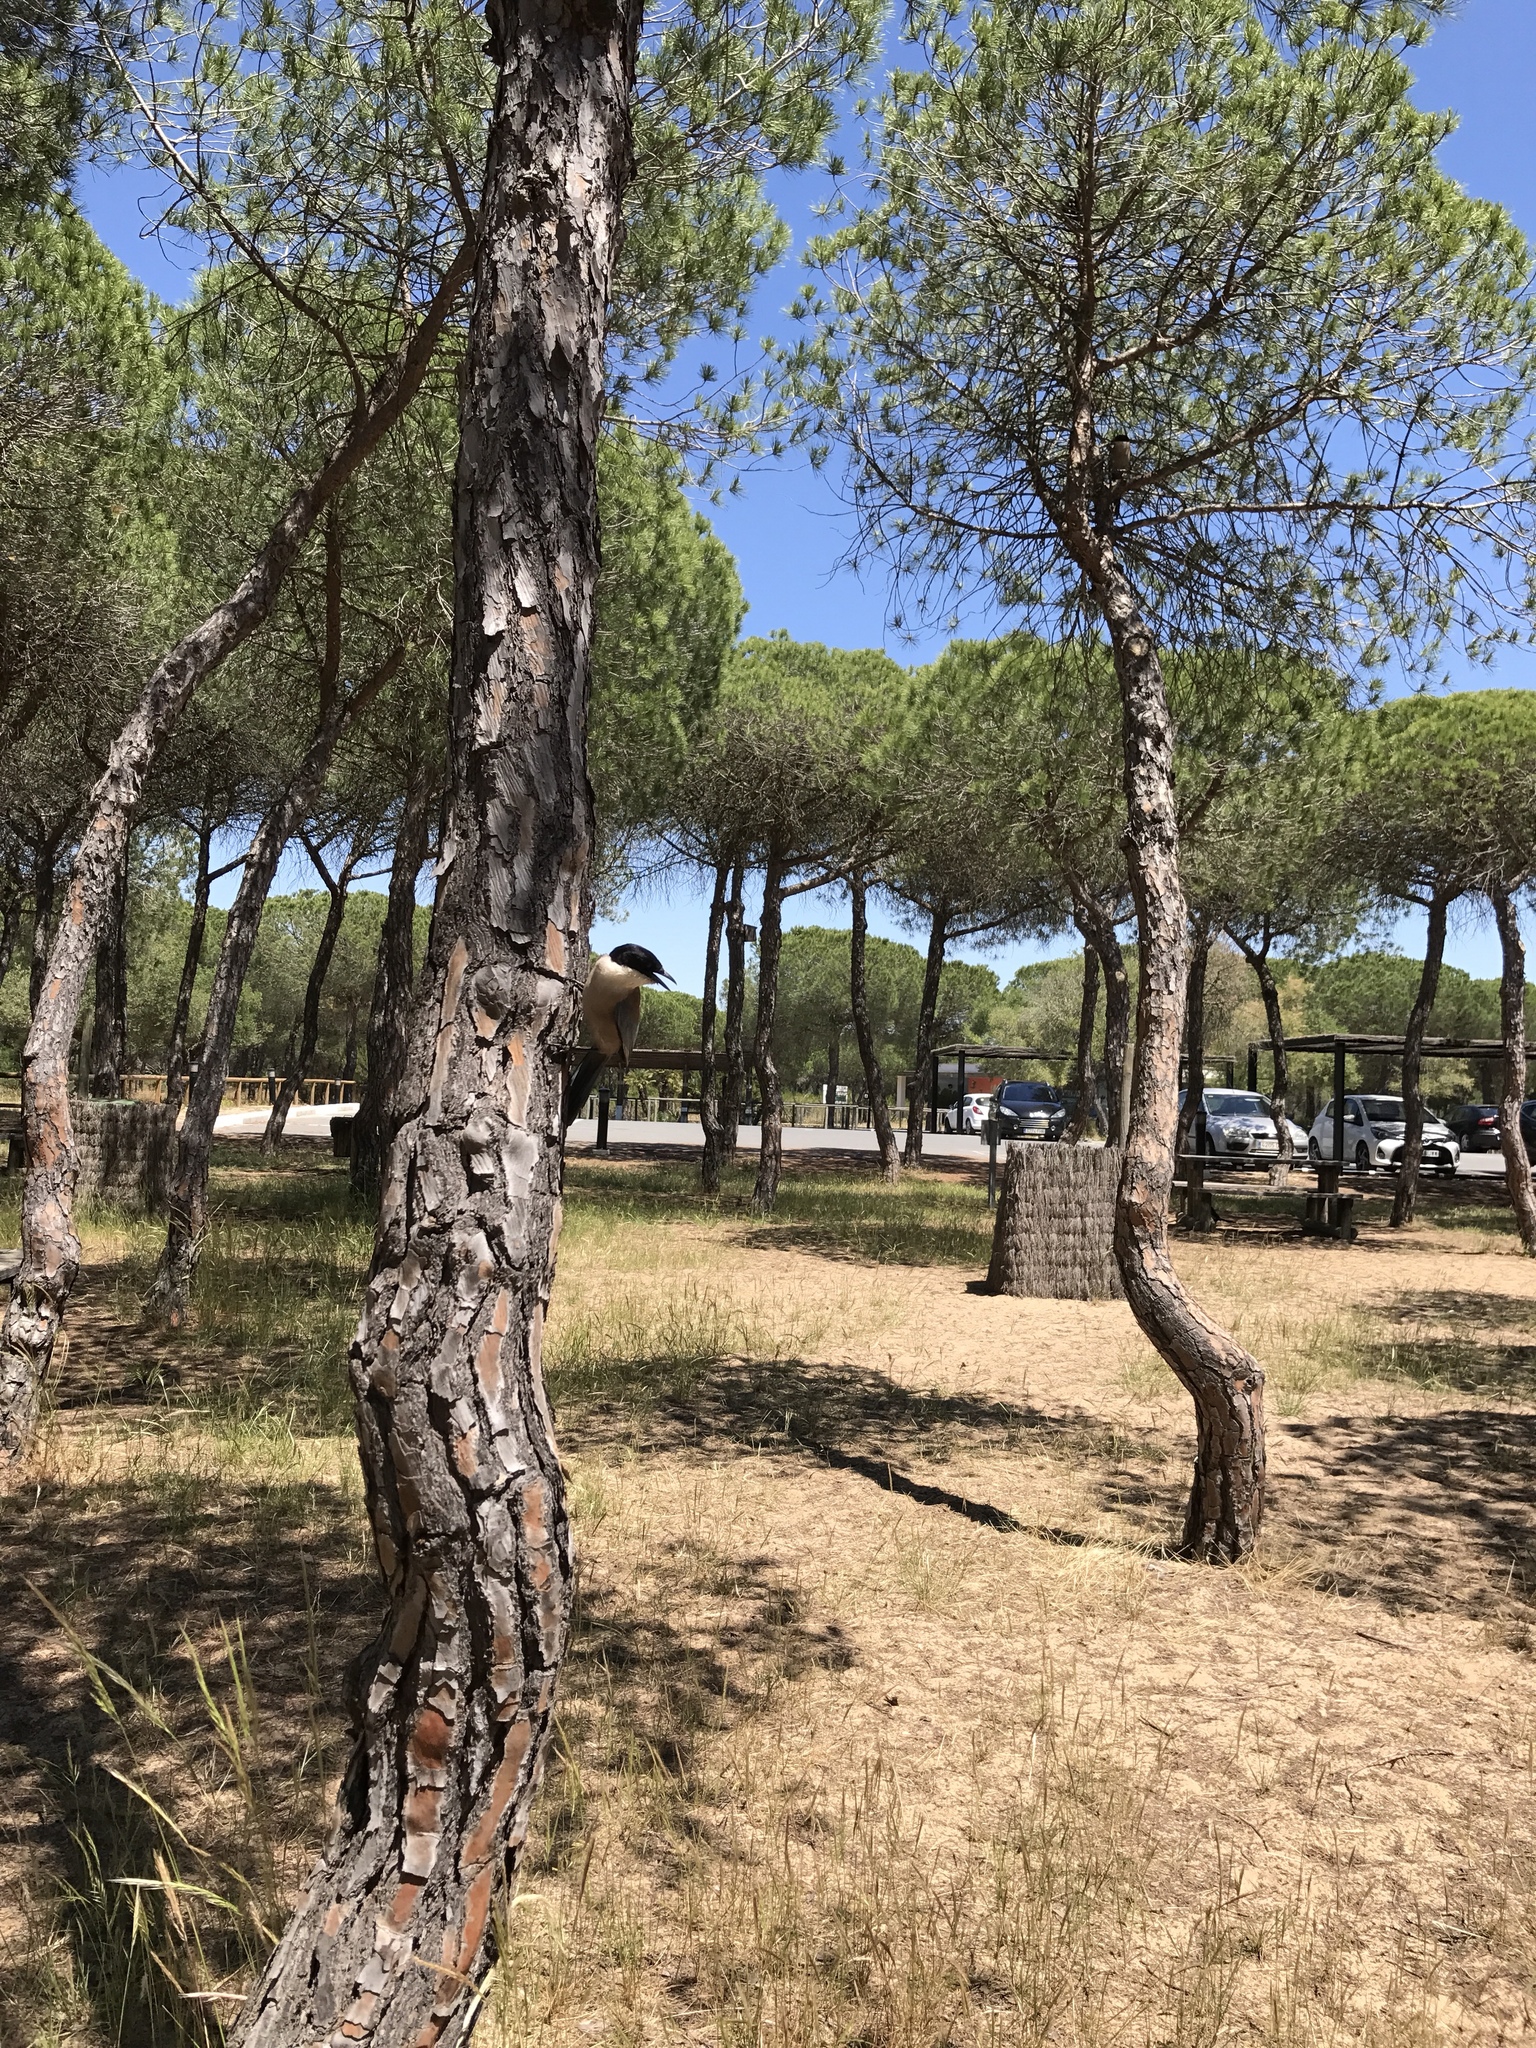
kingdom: Plantae
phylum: Tracheophyta
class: Pinopsida
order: Pinales
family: Pinaceae
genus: Pinus
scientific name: Pinus pinea
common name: Italian stone pine
